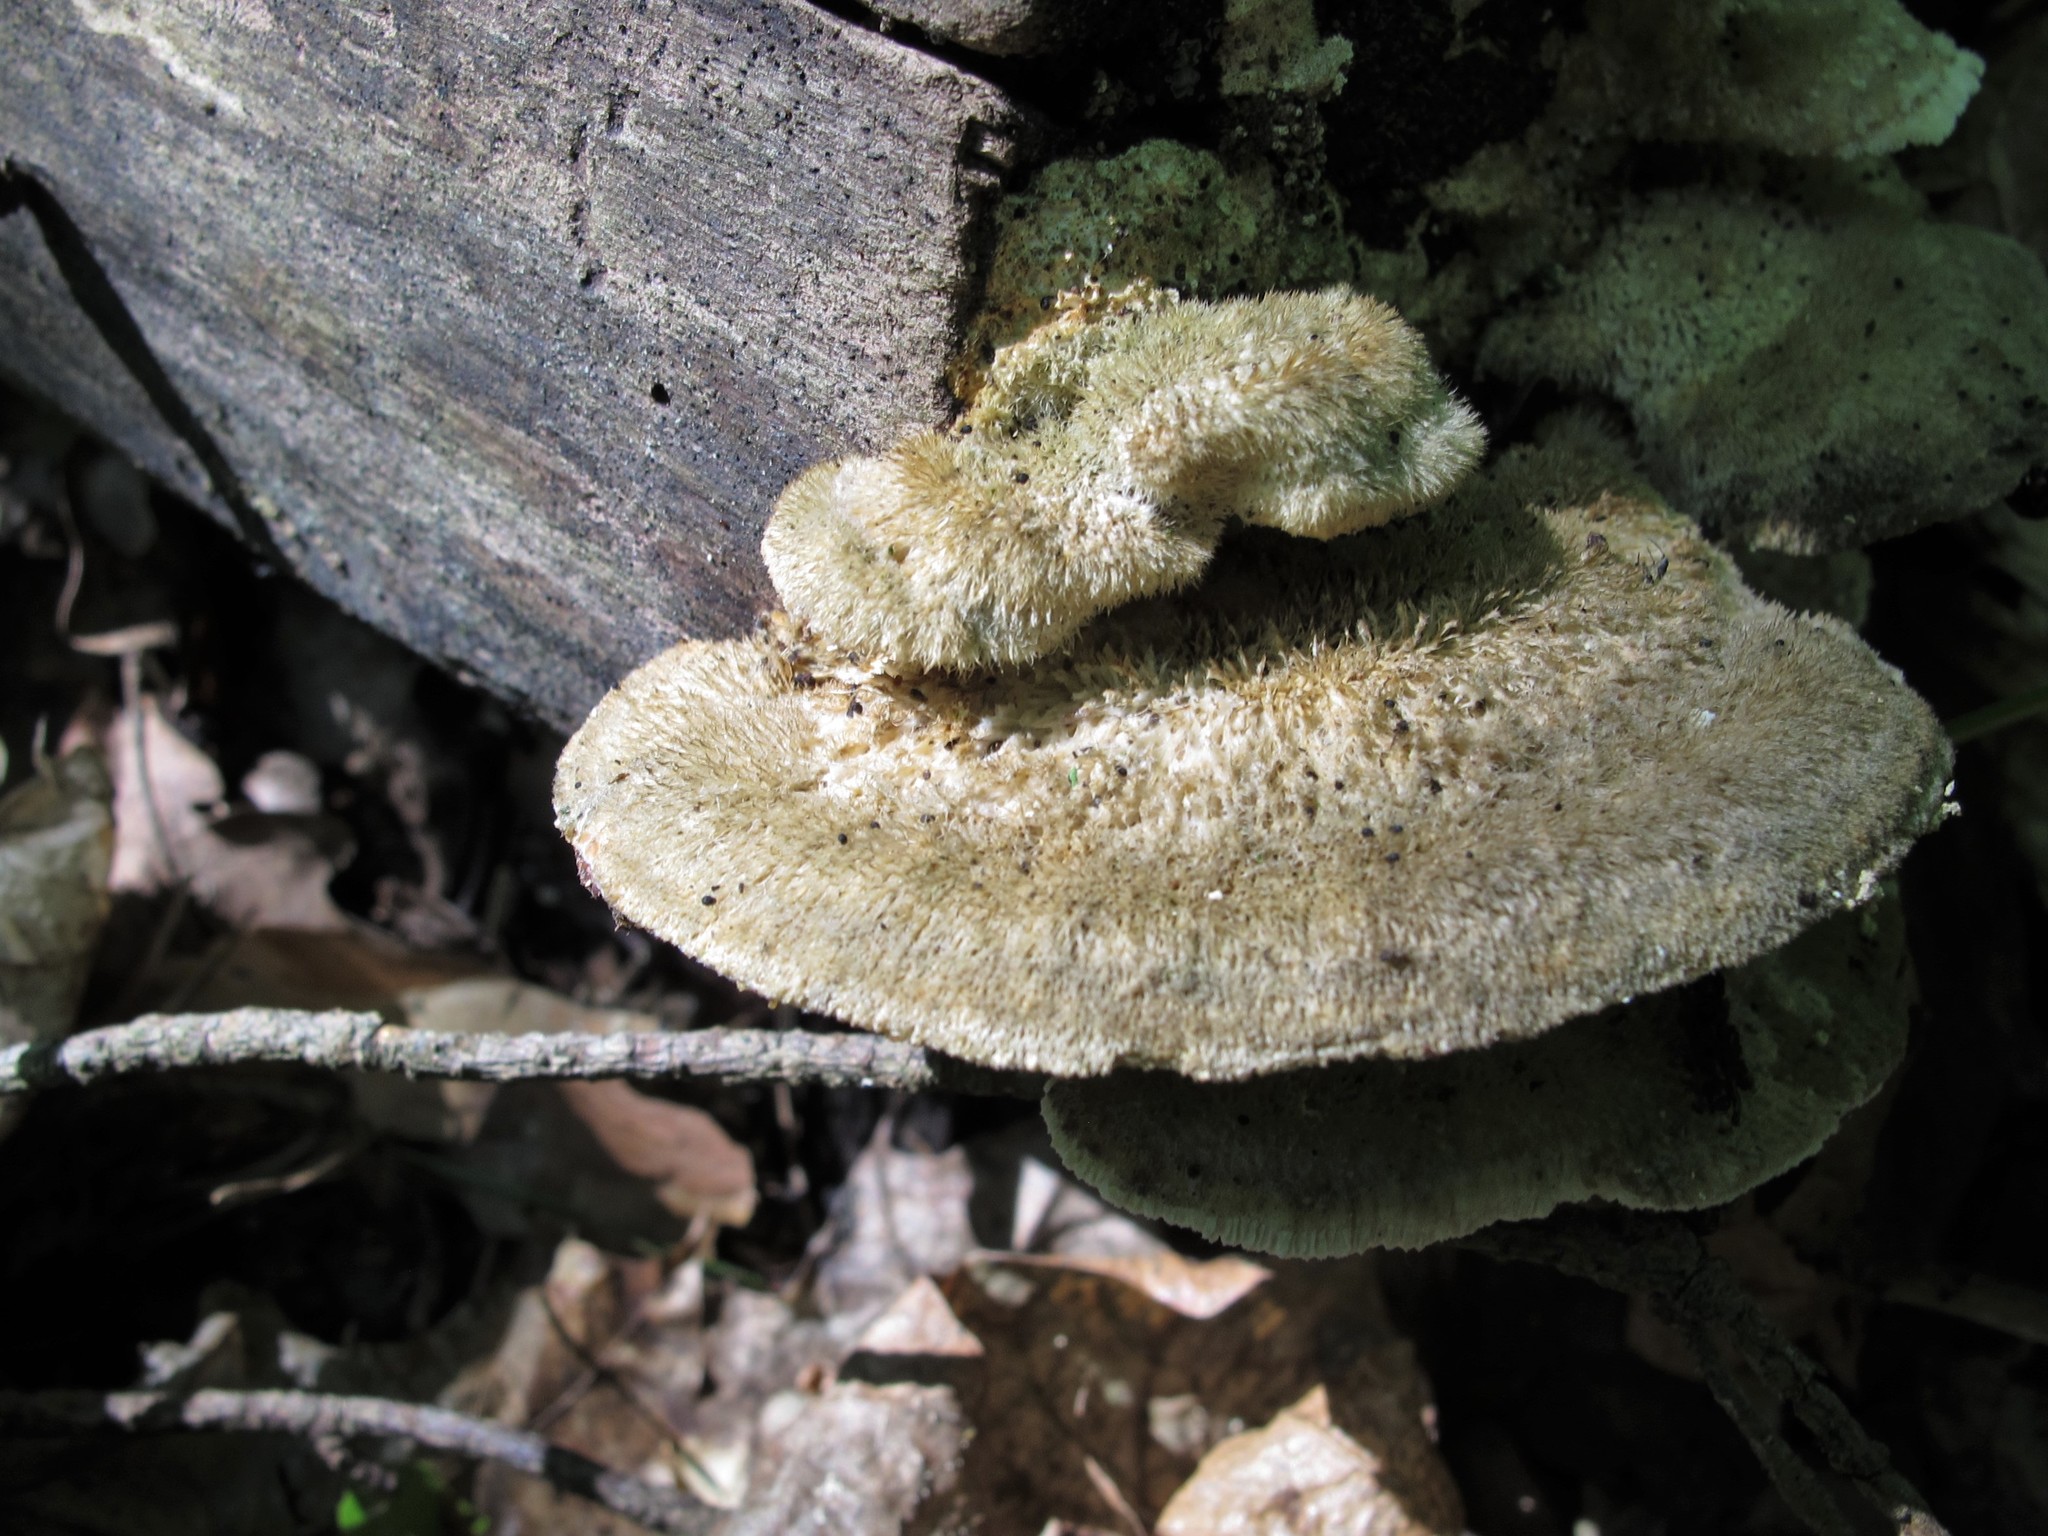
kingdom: Fungi
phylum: Basidiomycota
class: Agaricomycetes
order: Polyporales
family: Polyporaceae
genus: Trametes
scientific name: Trametes hirsuta
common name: Hairy bracket
